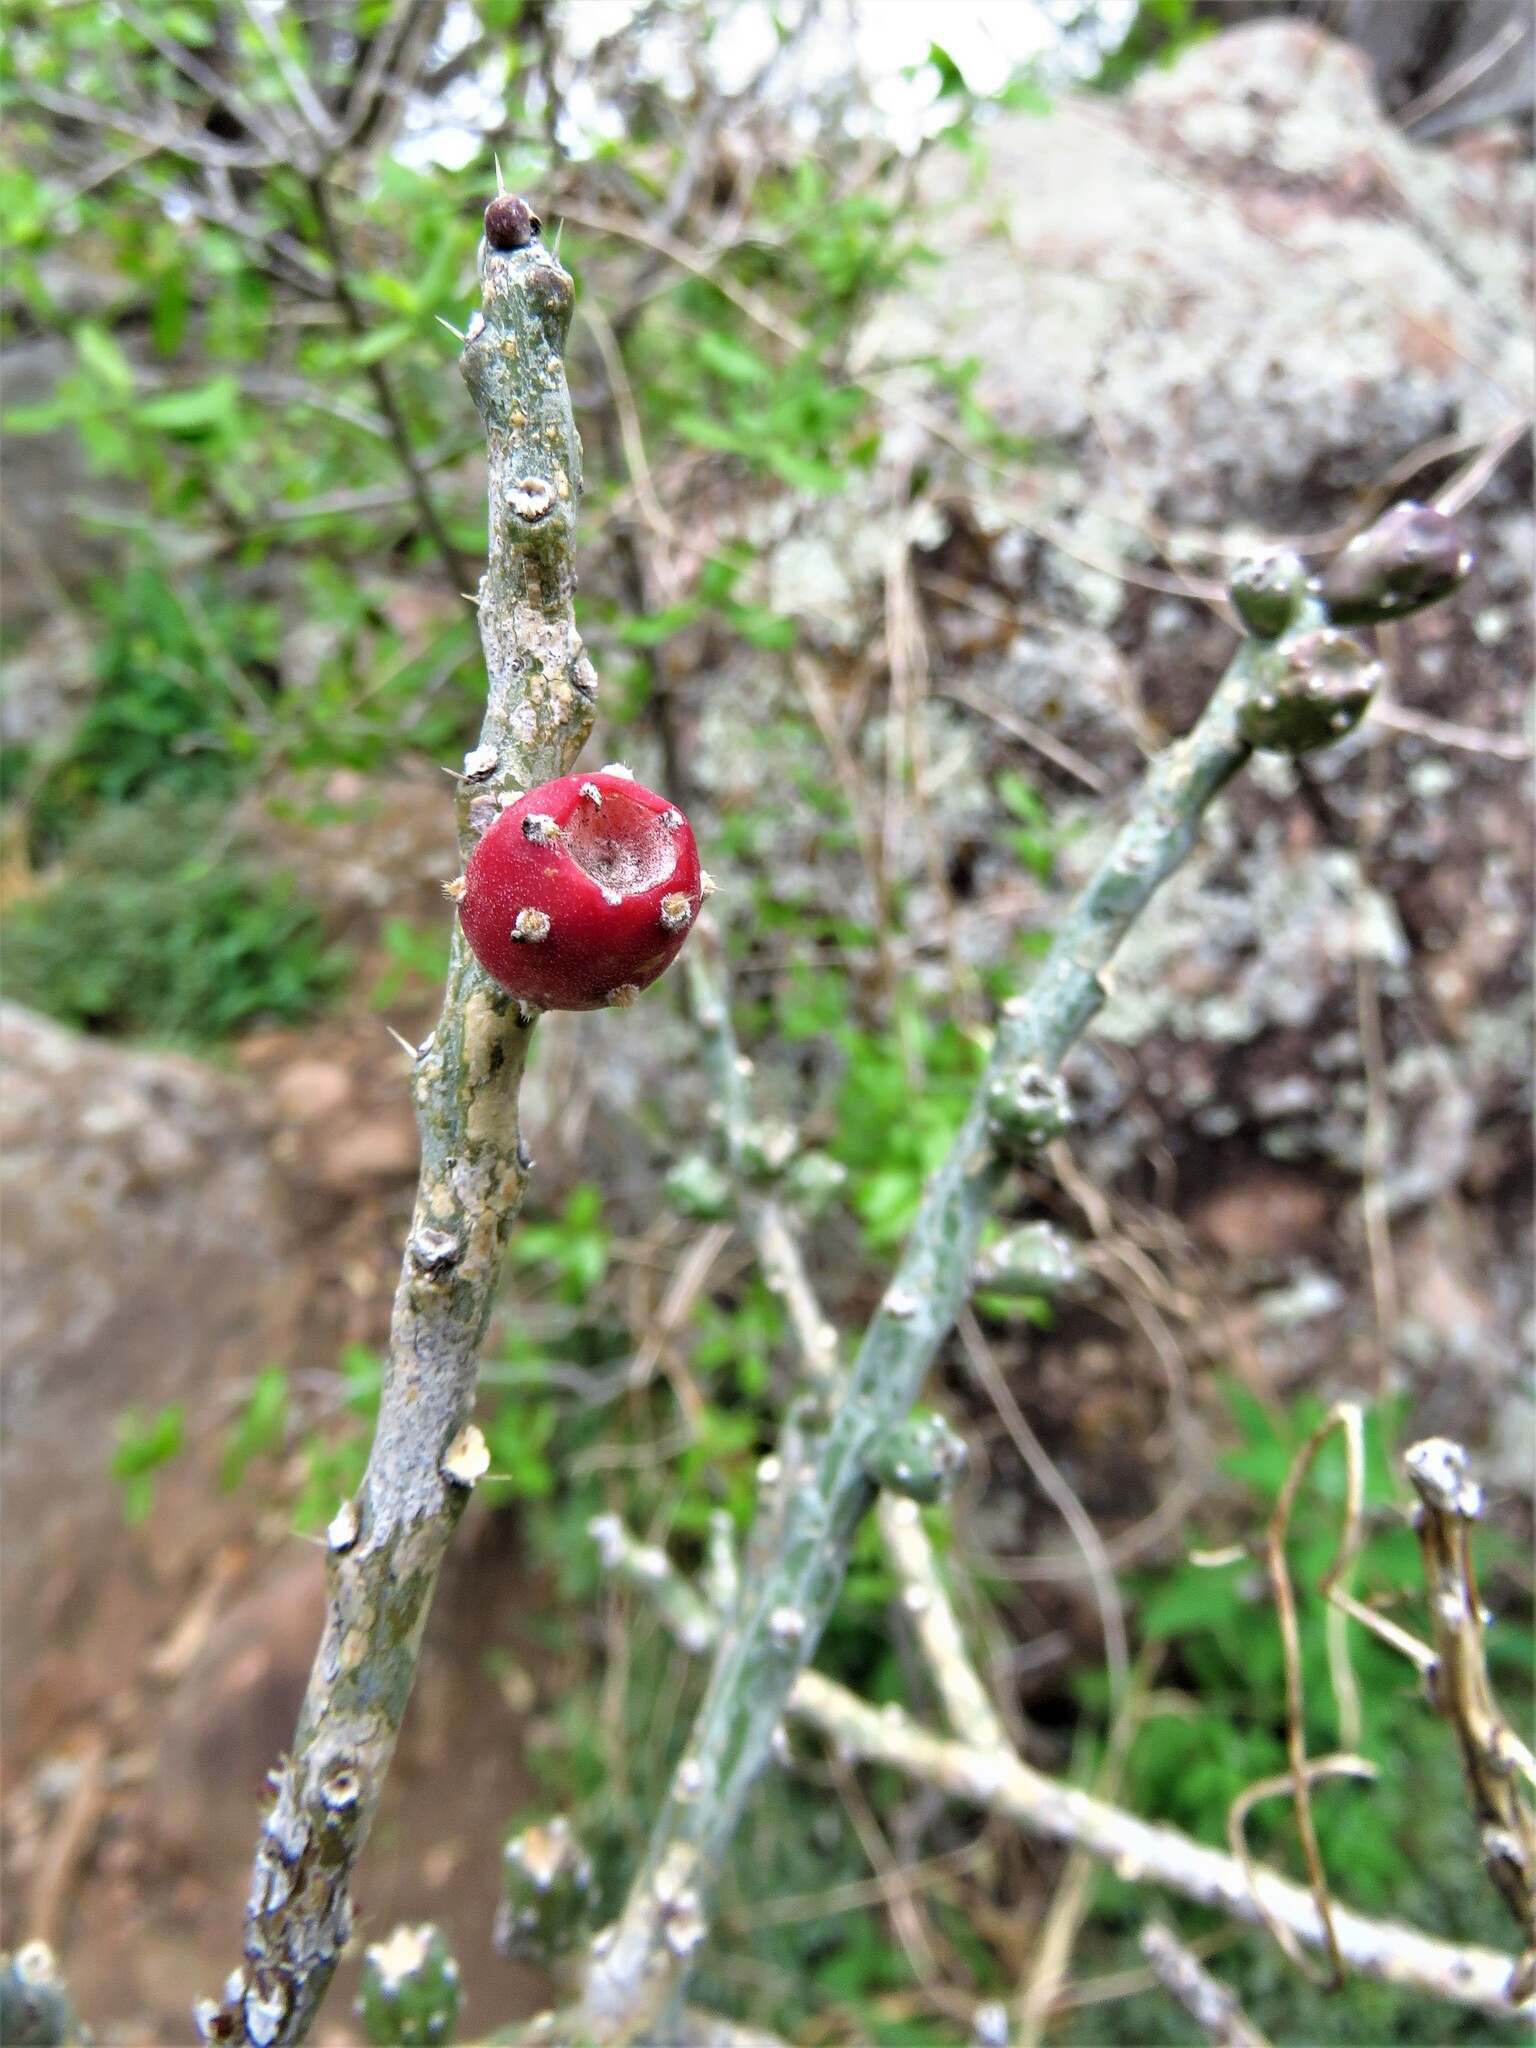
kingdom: Plantae
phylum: Tracheophyta
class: Magnoliopsida
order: Caryophyllales
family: Cactaceae
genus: Cylindropuntia
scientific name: Cylindropuntia leptocaulis
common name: Christmas cactus
